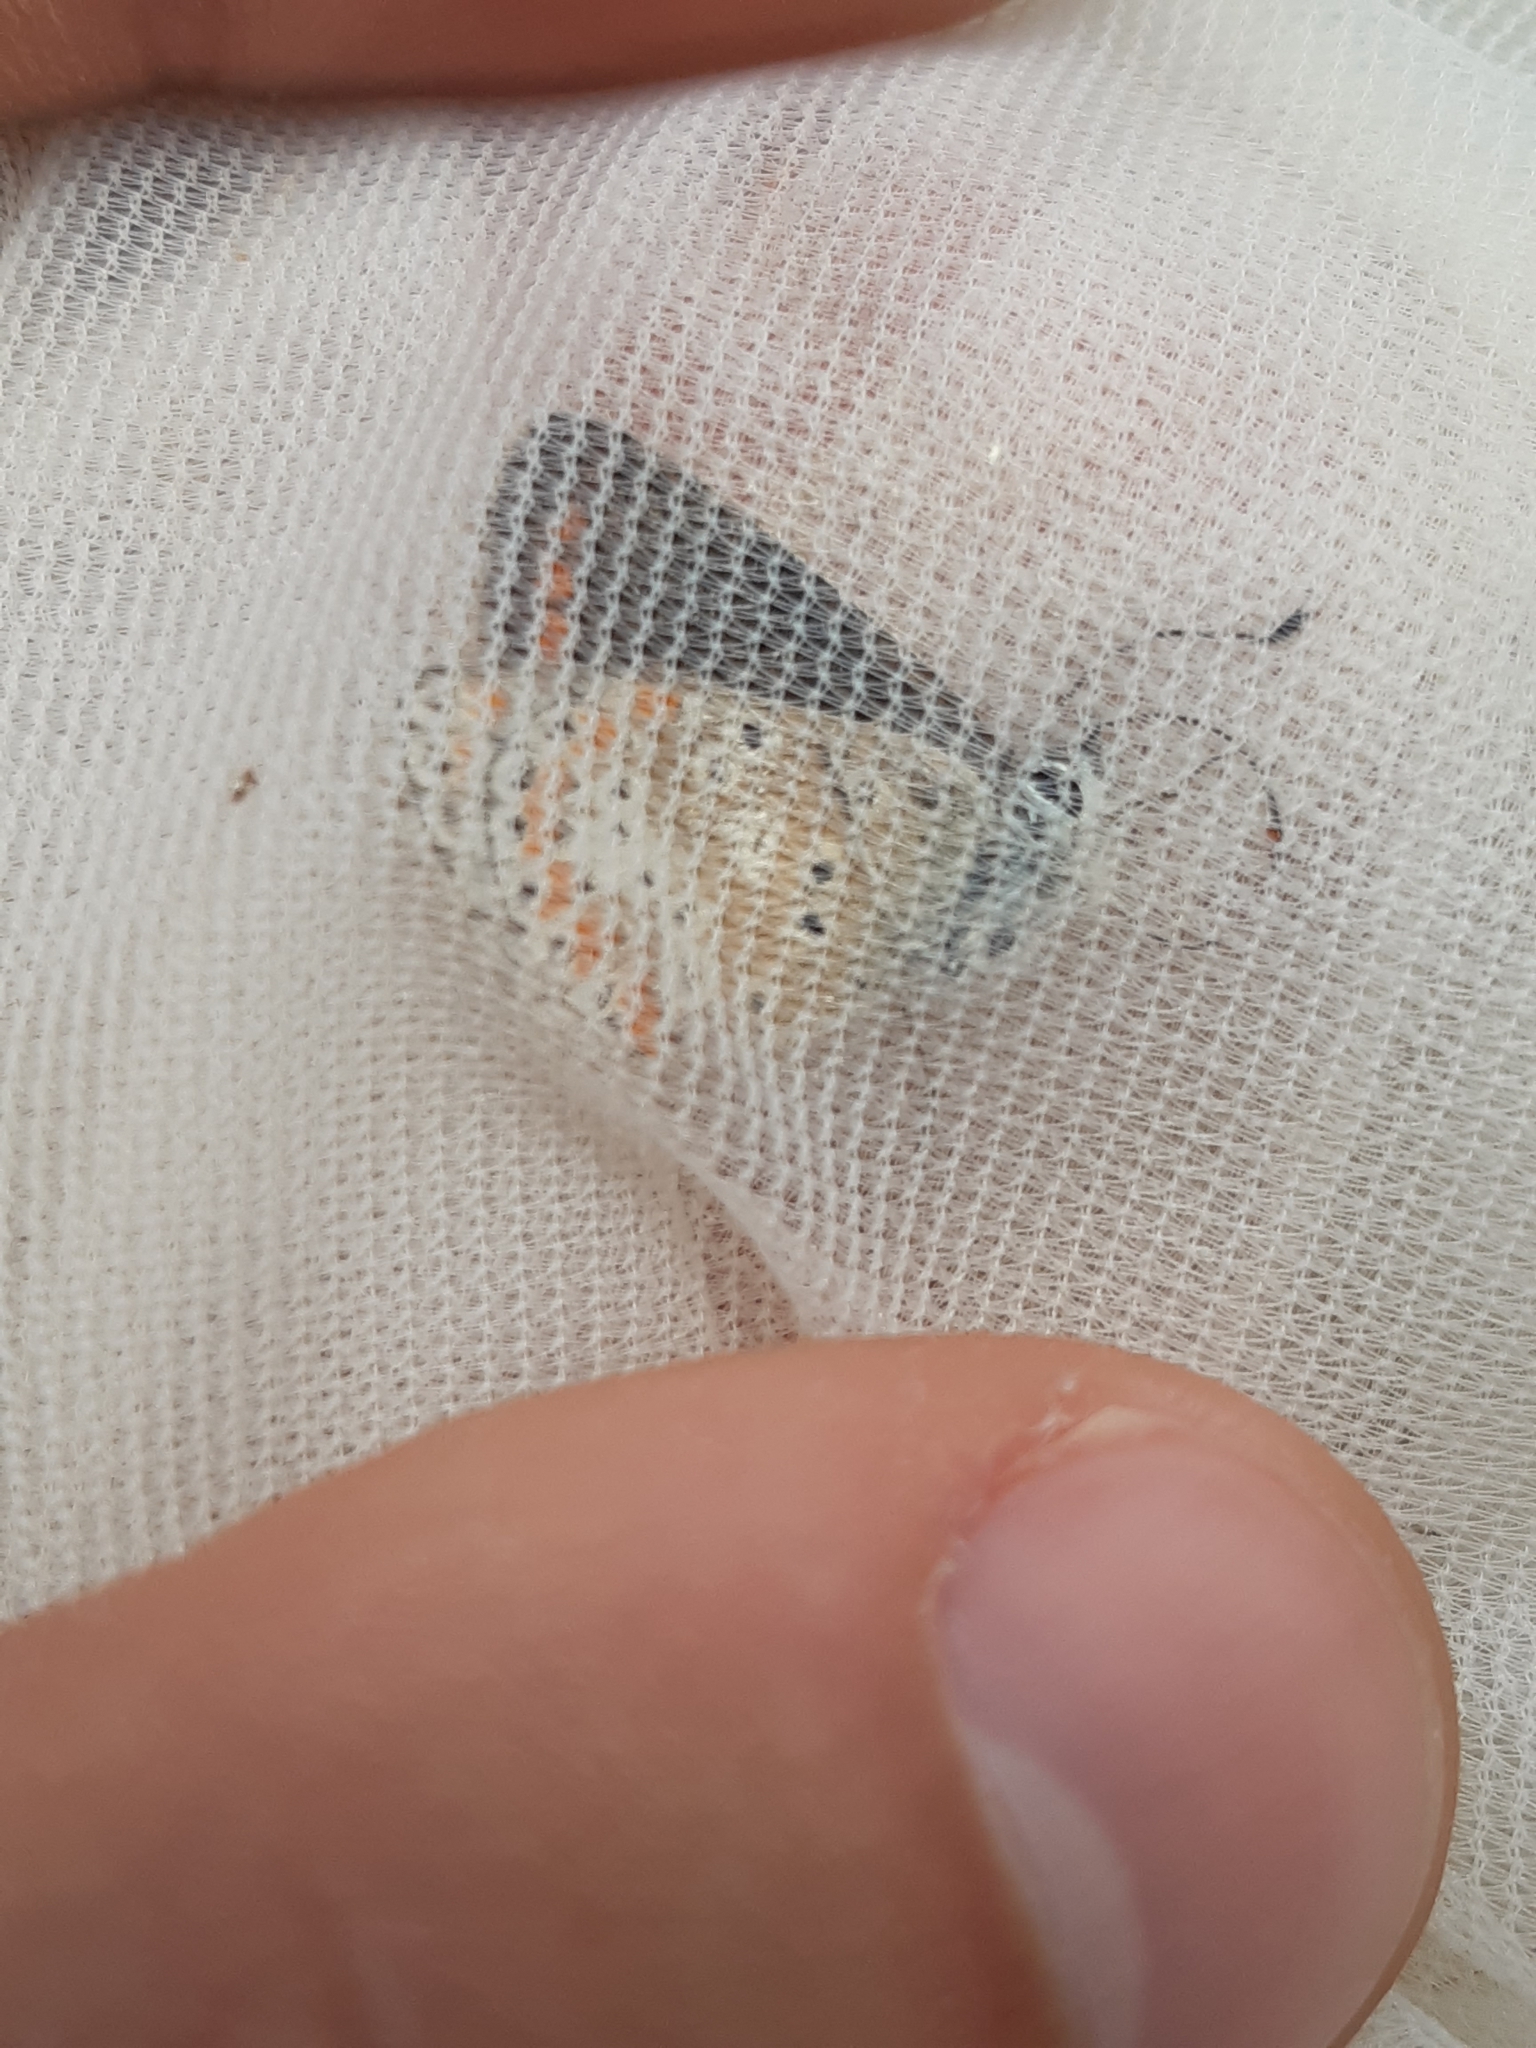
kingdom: Animalia
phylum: Arthropoda
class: Insecta
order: Lepidoptera
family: Lycaenidae
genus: Aricia
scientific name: Aricia agestis
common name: Brown argus
